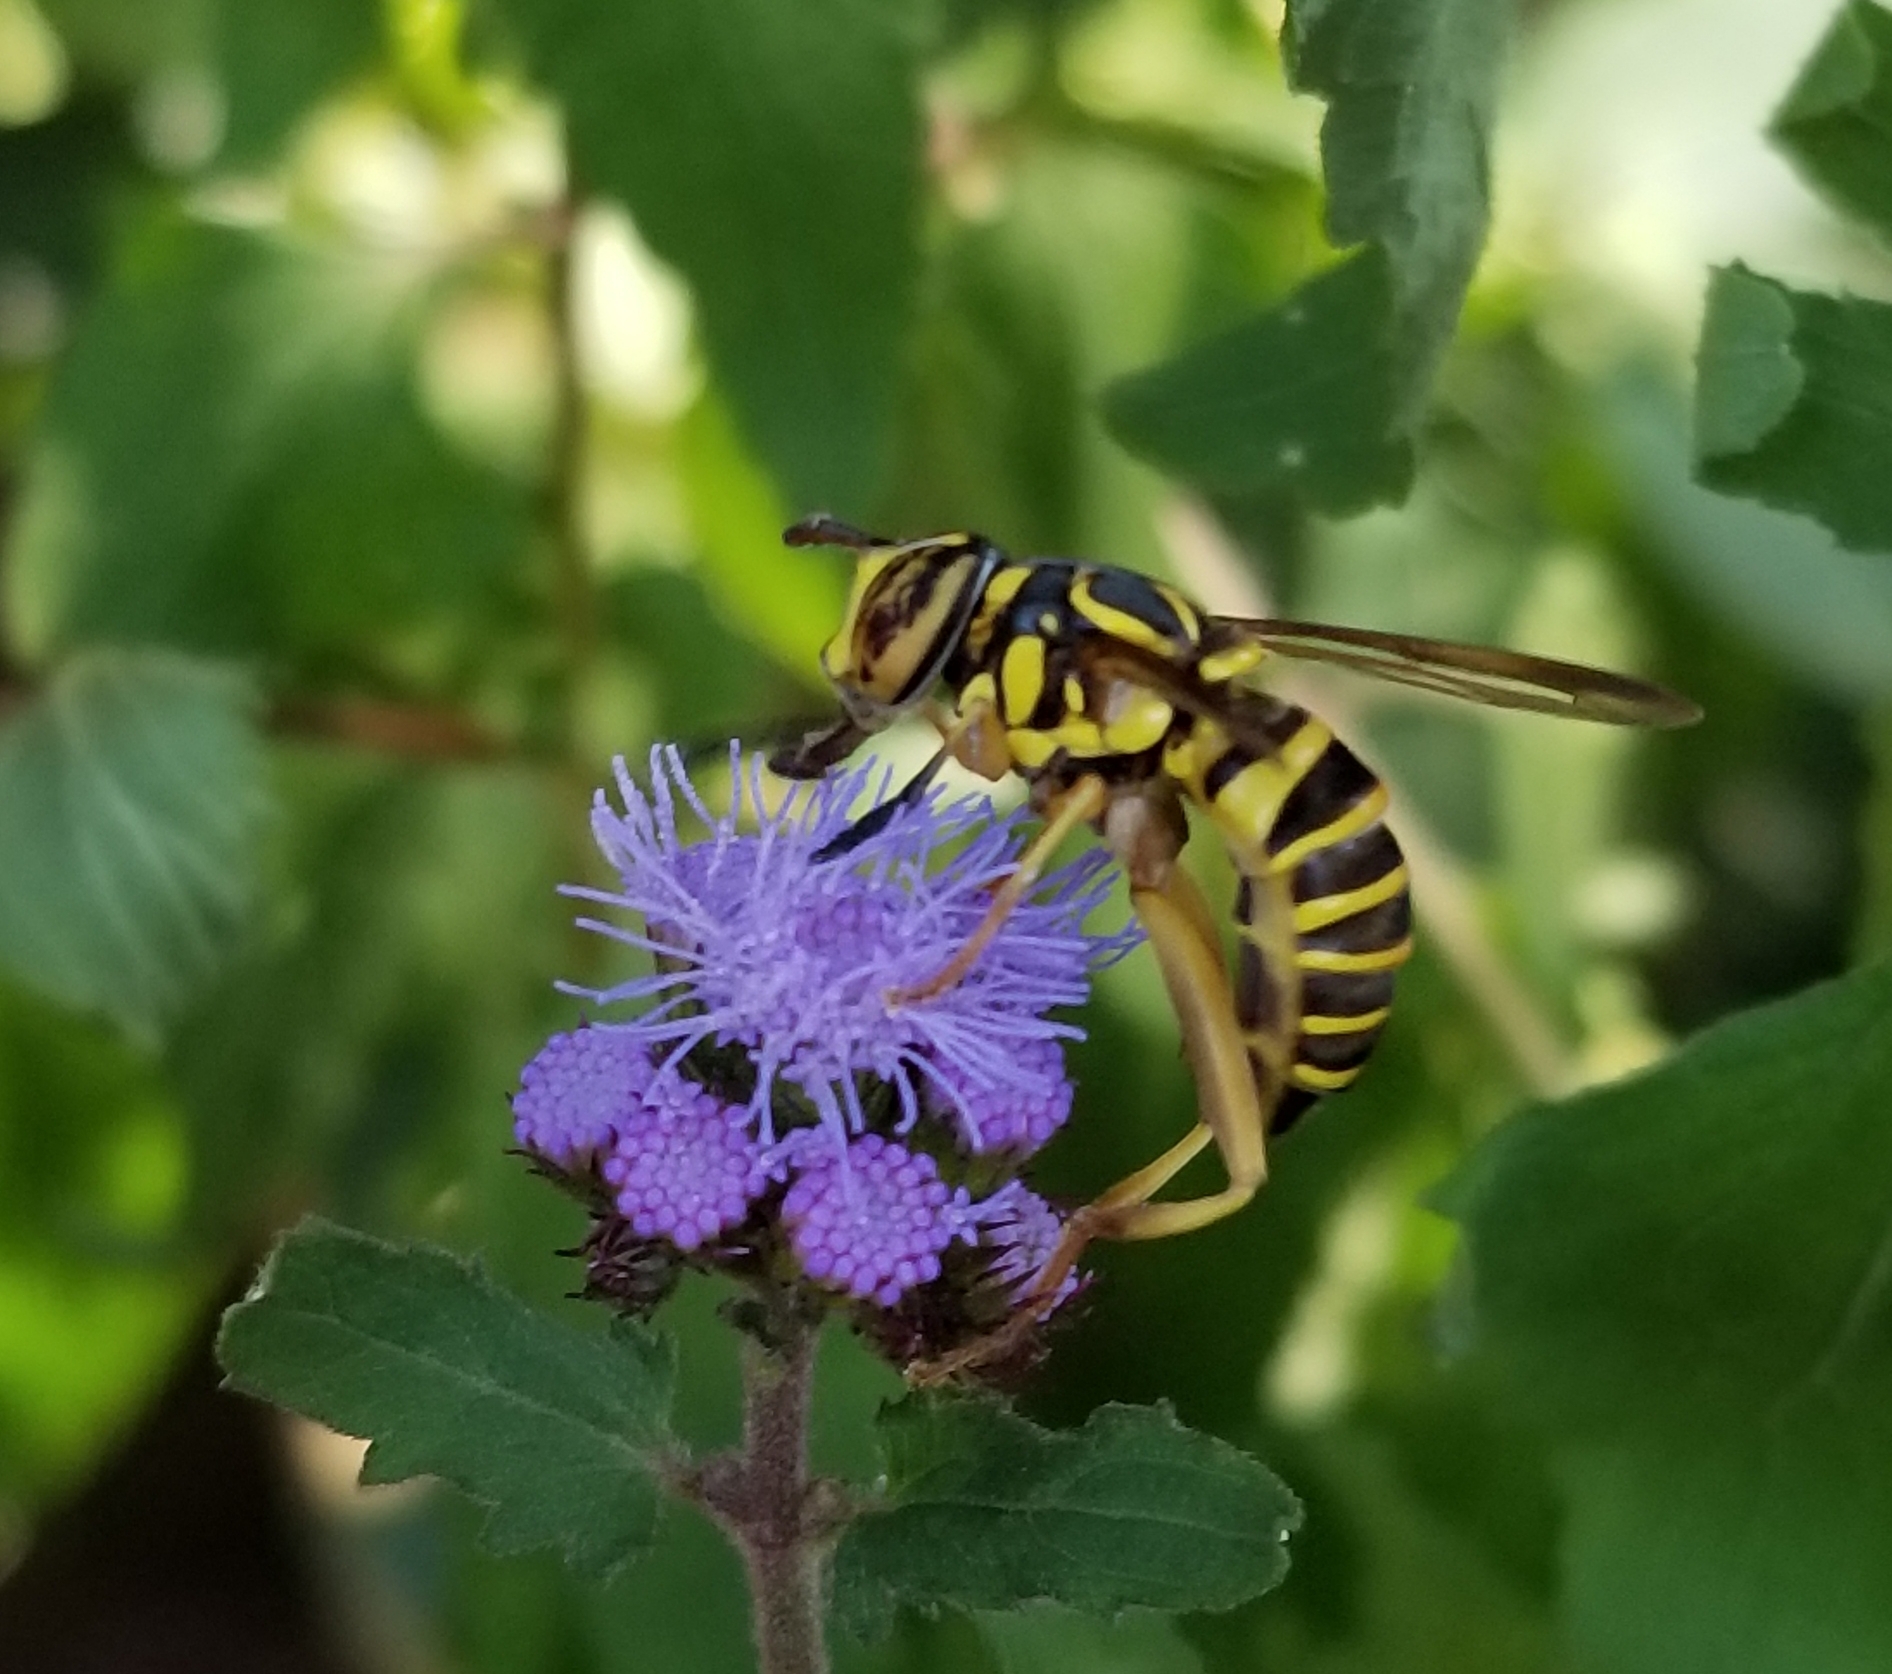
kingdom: Animalia
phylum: Arthropoda
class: Insecta
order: Diptera
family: Syrphidae
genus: Spilomyia
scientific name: Spilomyia longicornis
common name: Eastern hornet fly
